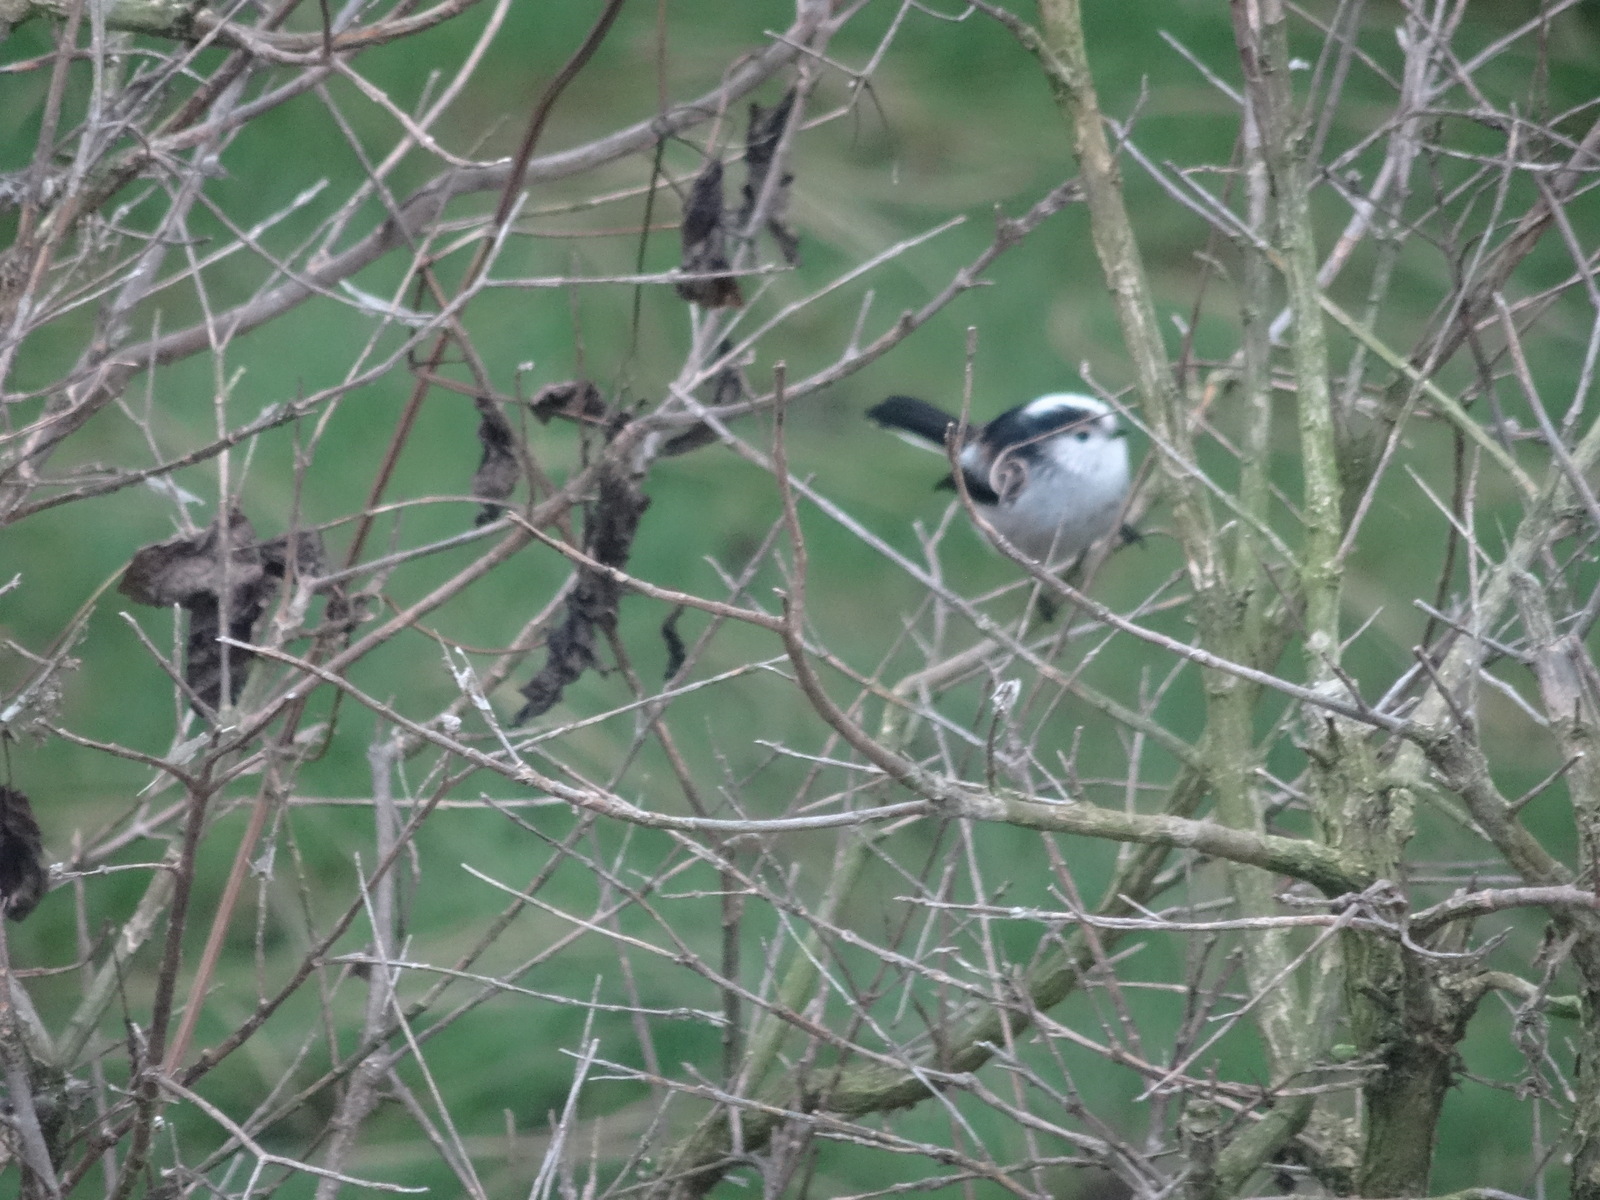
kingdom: Animalia
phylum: Chordata
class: Aves
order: Passeriformes
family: Aegithalidae
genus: Aegithalos
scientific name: Aegithalos caudatus
